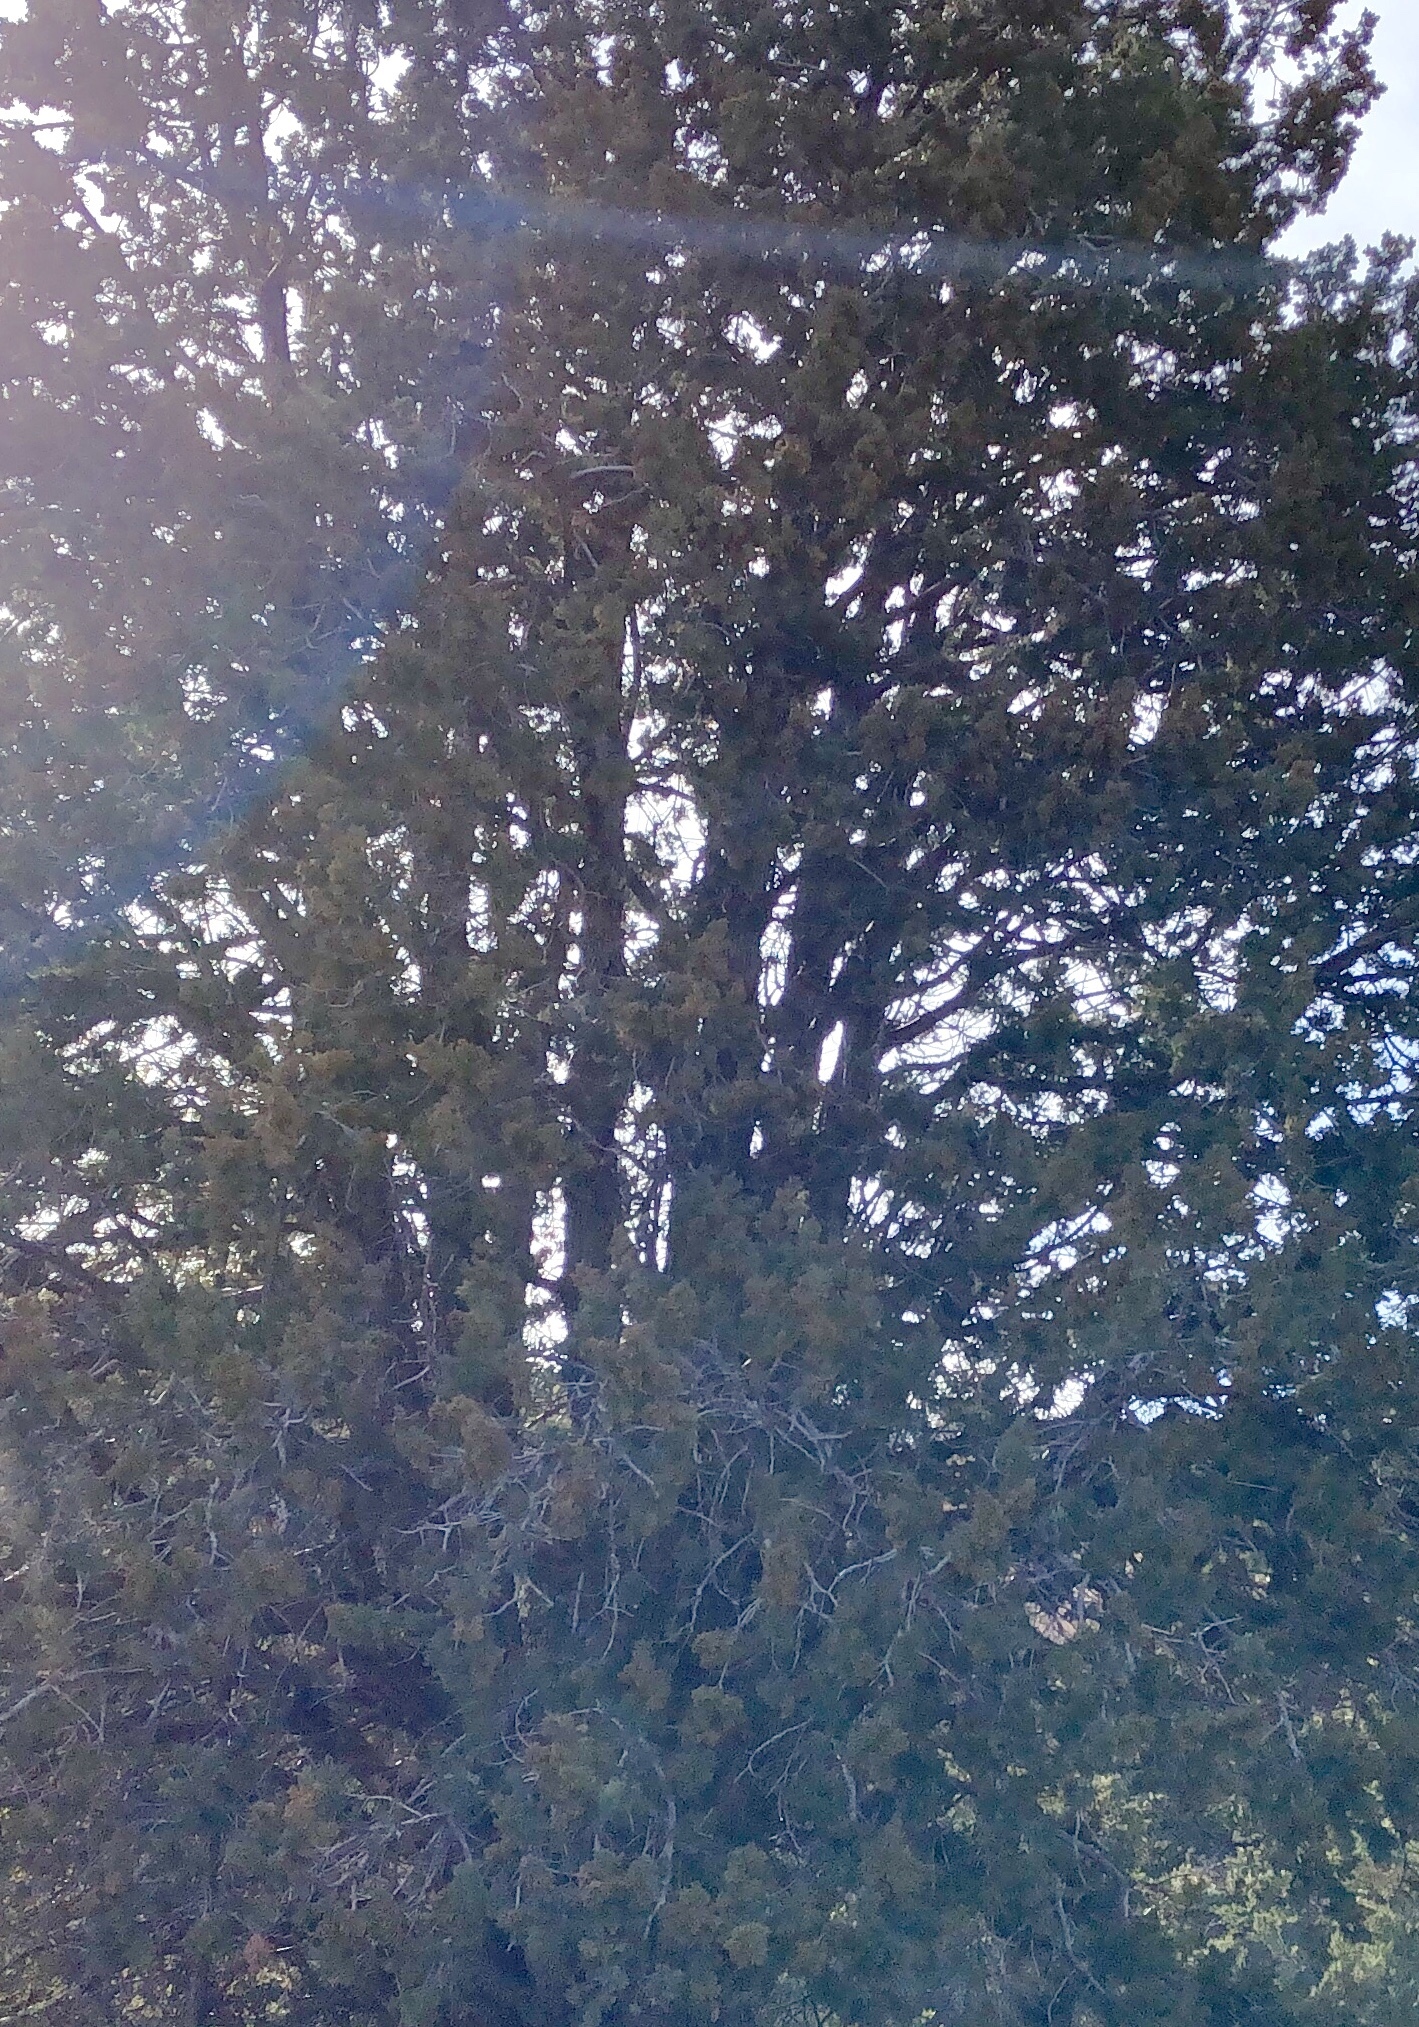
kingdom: Plantae
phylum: Tracheophyta
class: Pinopsida
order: Pinales
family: Cupressaceae
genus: Juniperus
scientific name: Juniperus monosperma
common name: One-seed juniper
